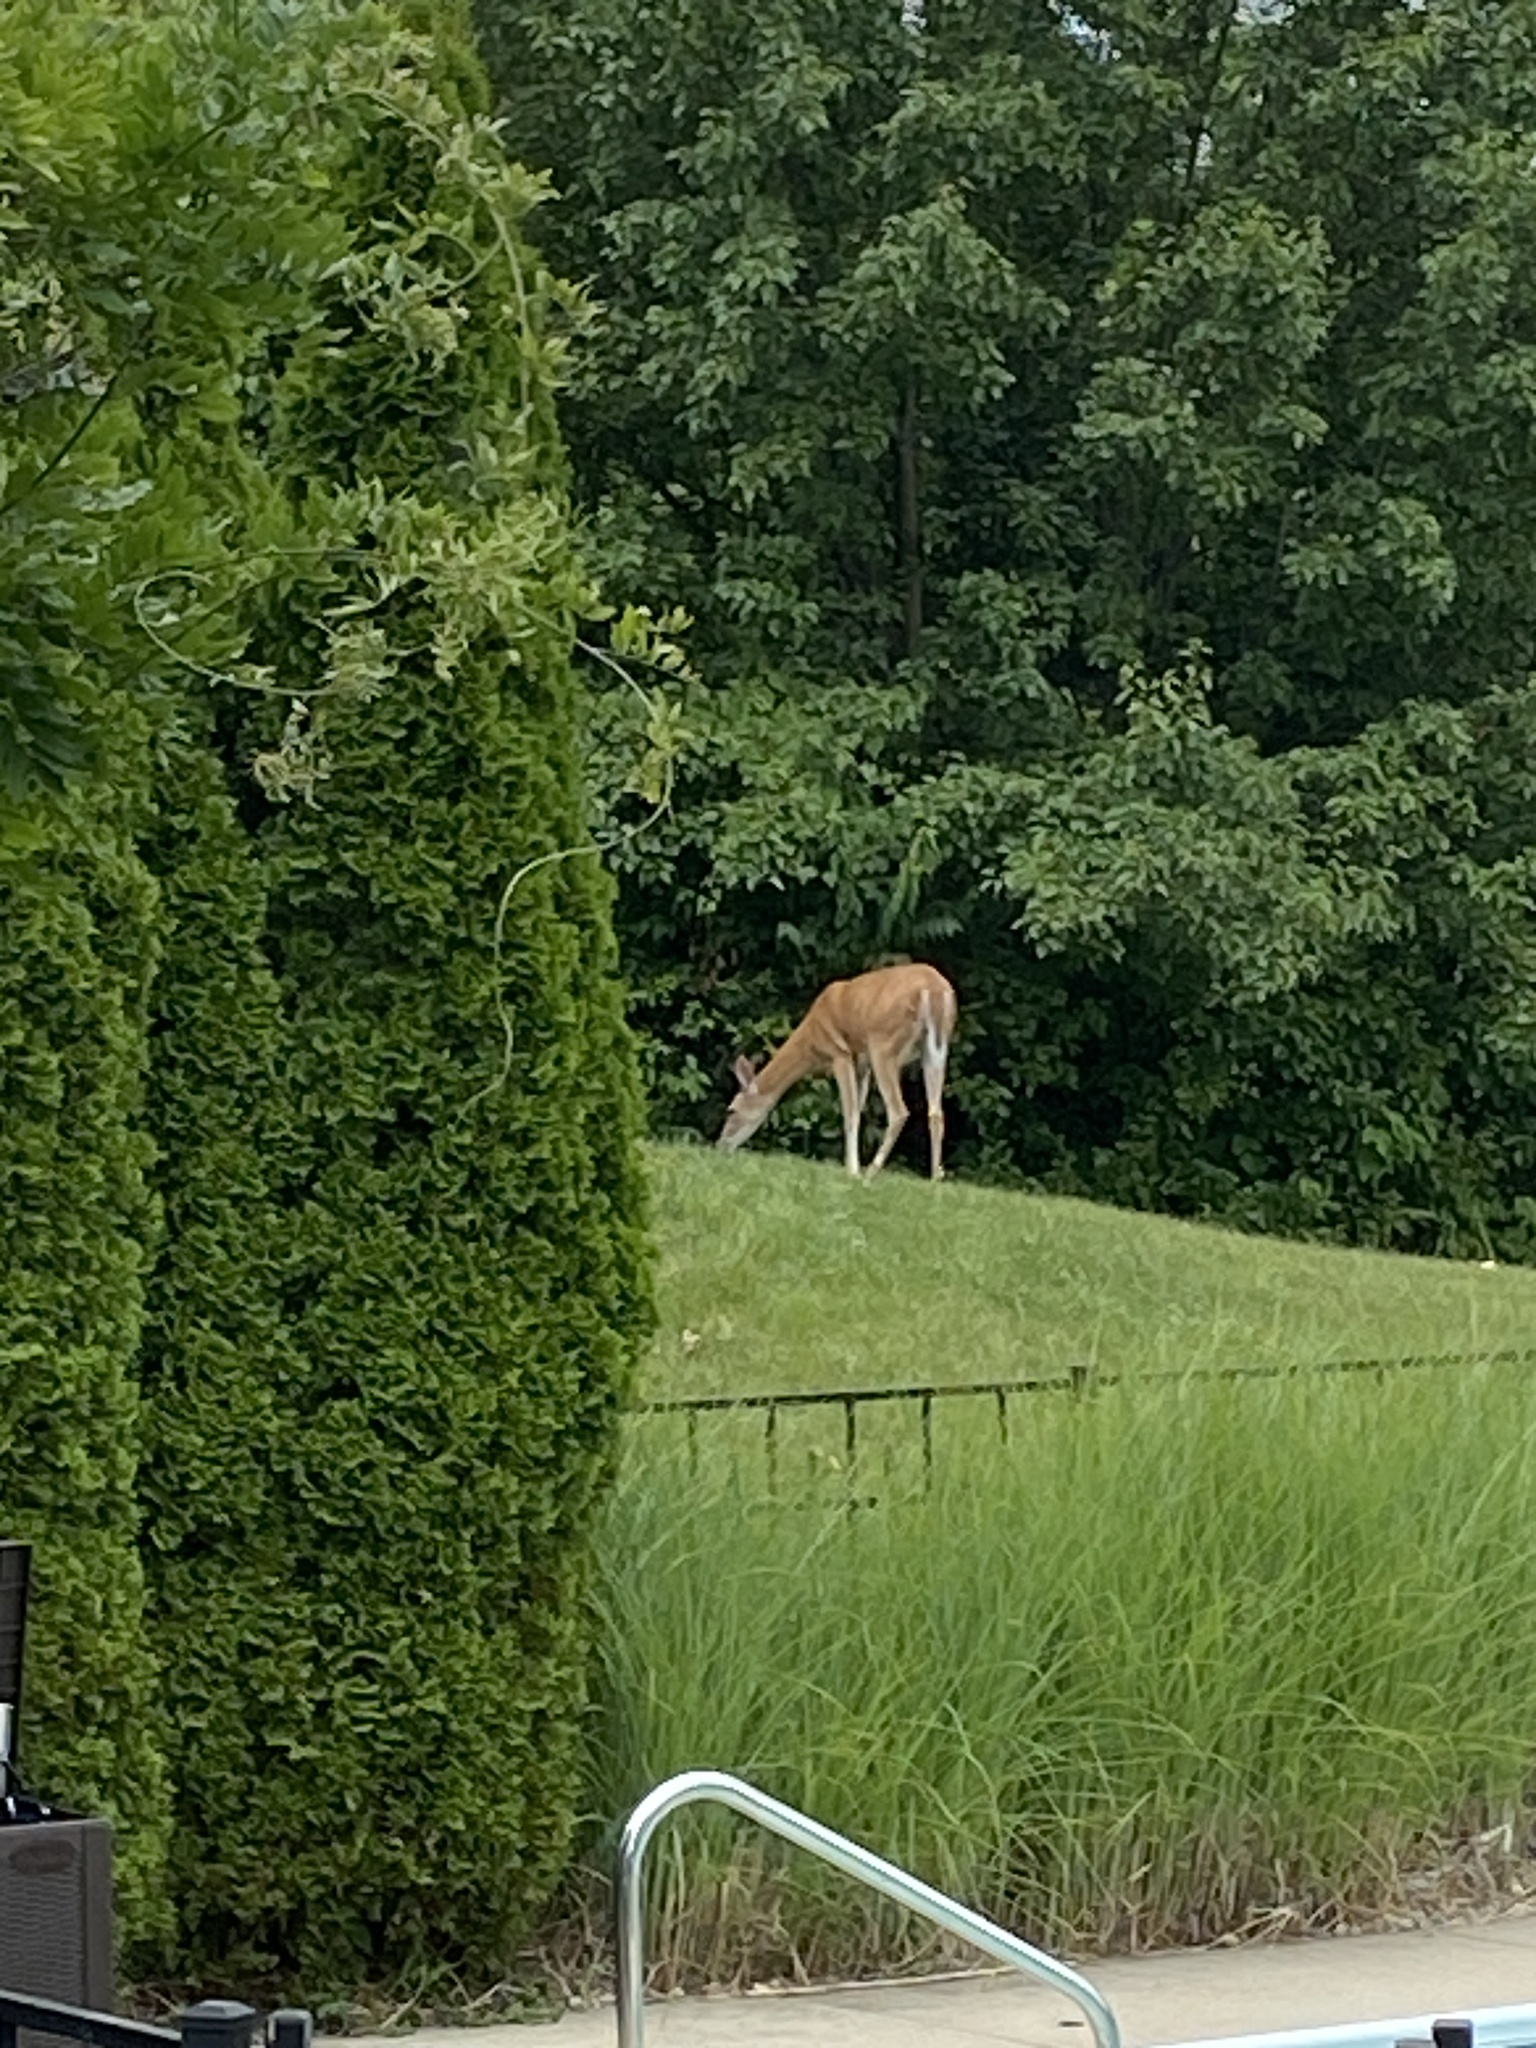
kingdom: Animalia
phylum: Chordata
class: Mammalia
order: Artiodactyla
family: Cervidae
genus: Odocoileus
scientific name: Odocoileus virginianus
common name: White-tailed deer
